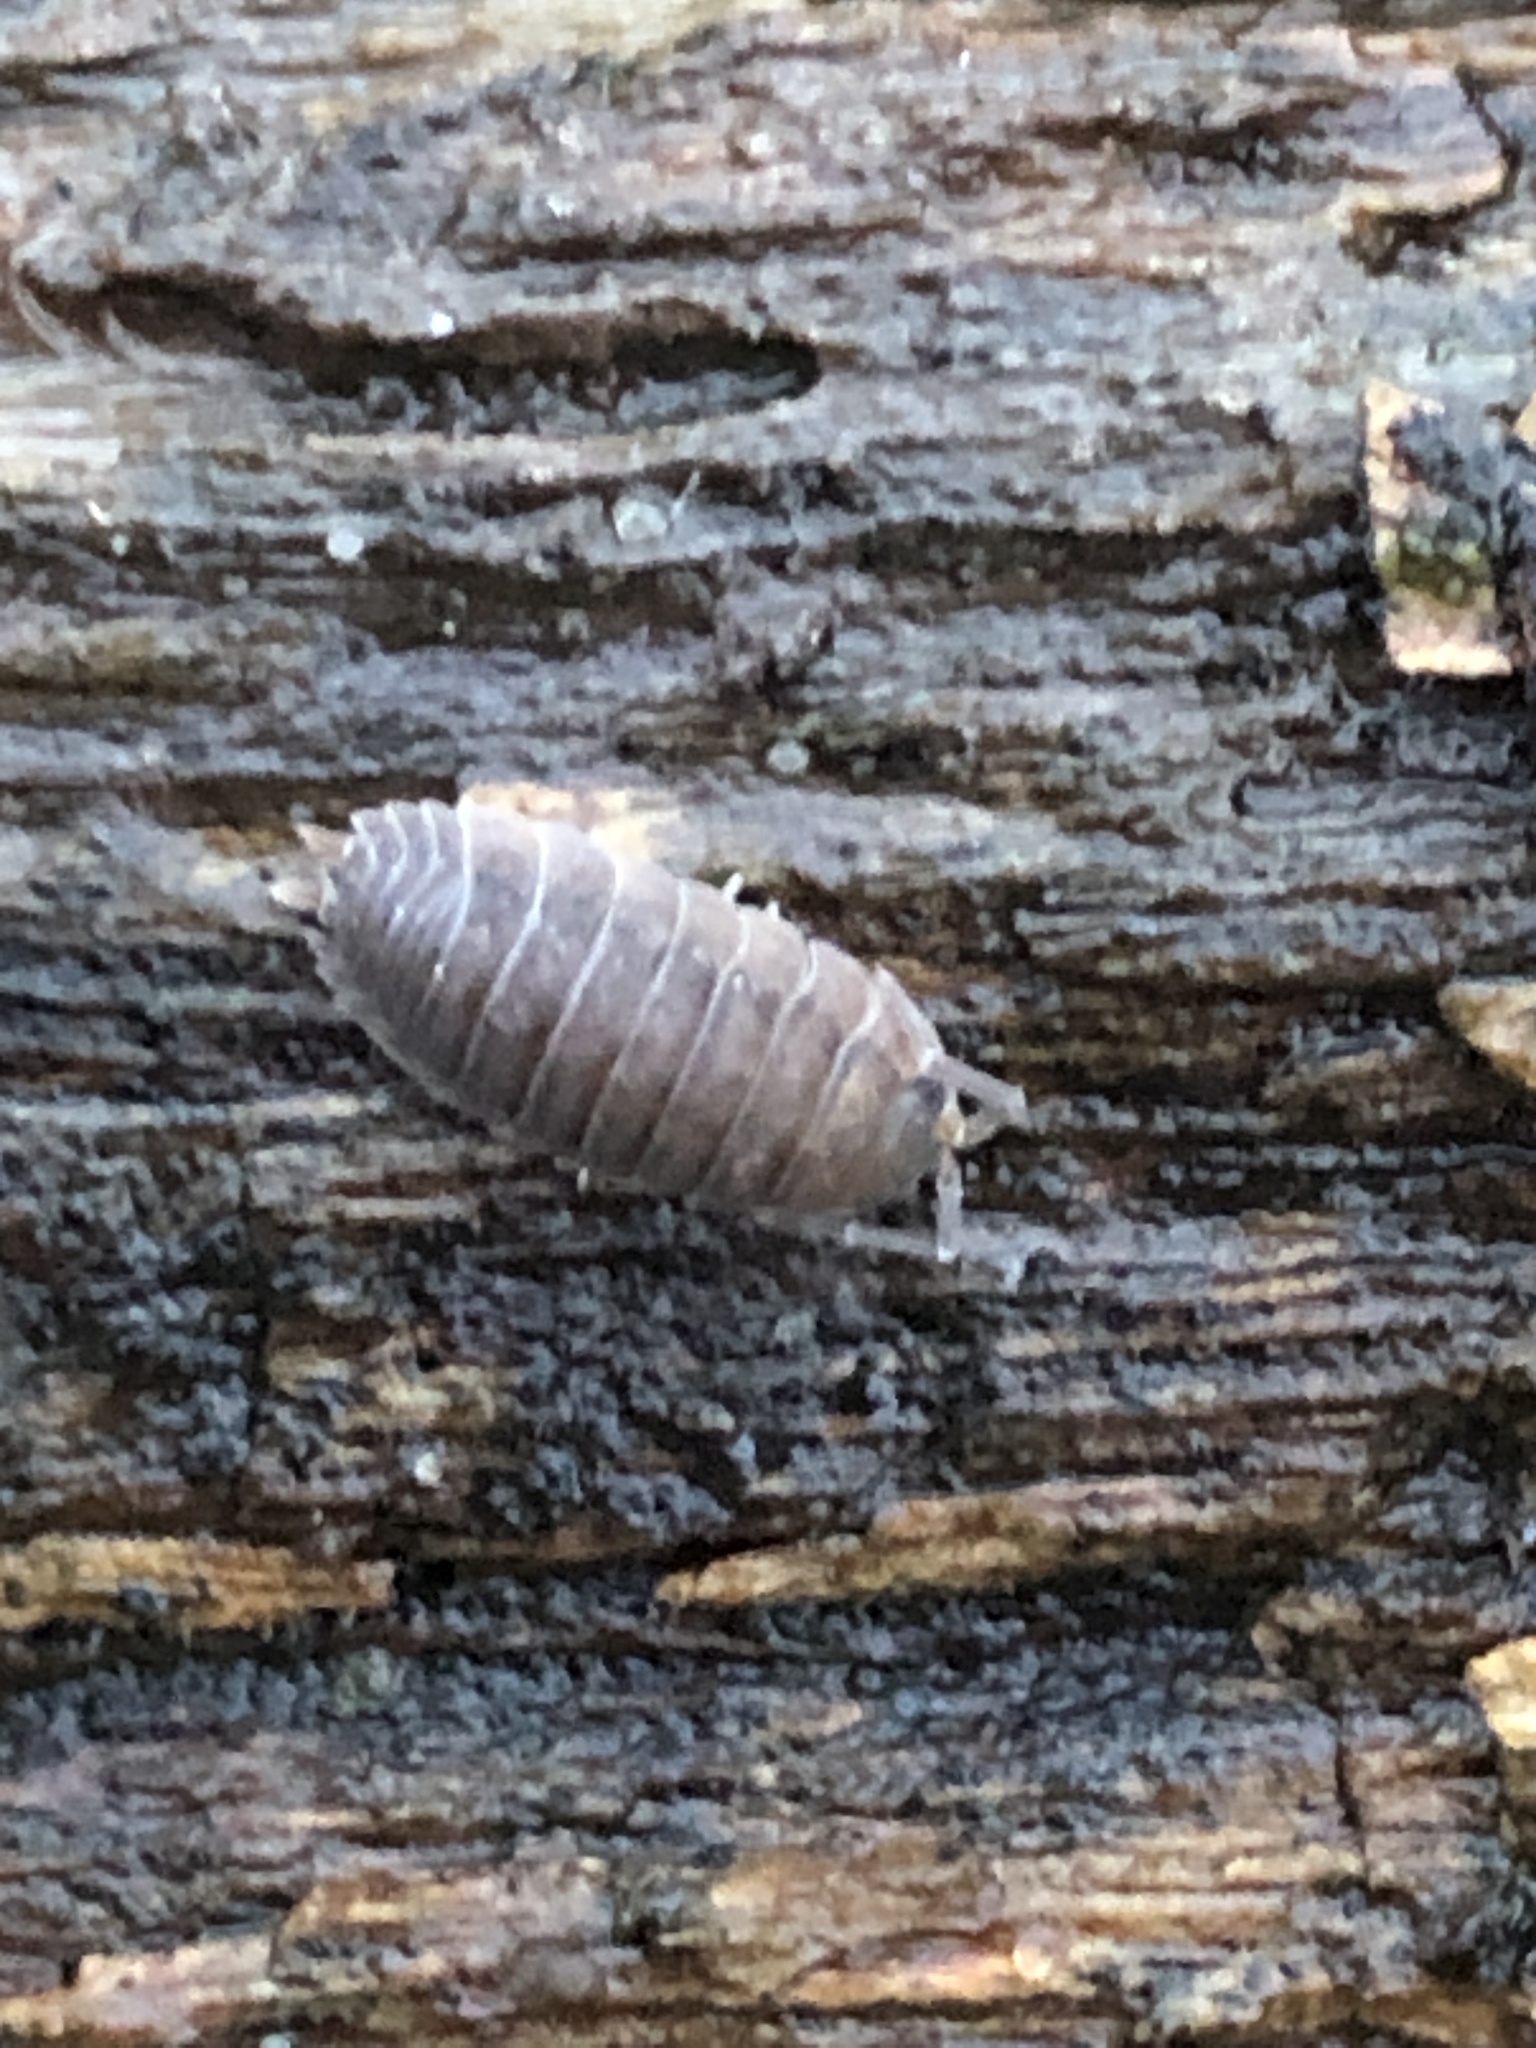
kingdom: Animalia
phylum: Arthropoda
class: Malacostraca
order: Isopoda
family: Porcellionidae
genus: Porcellio
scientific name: Porcellio scaber
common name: Common rough woodlouse
